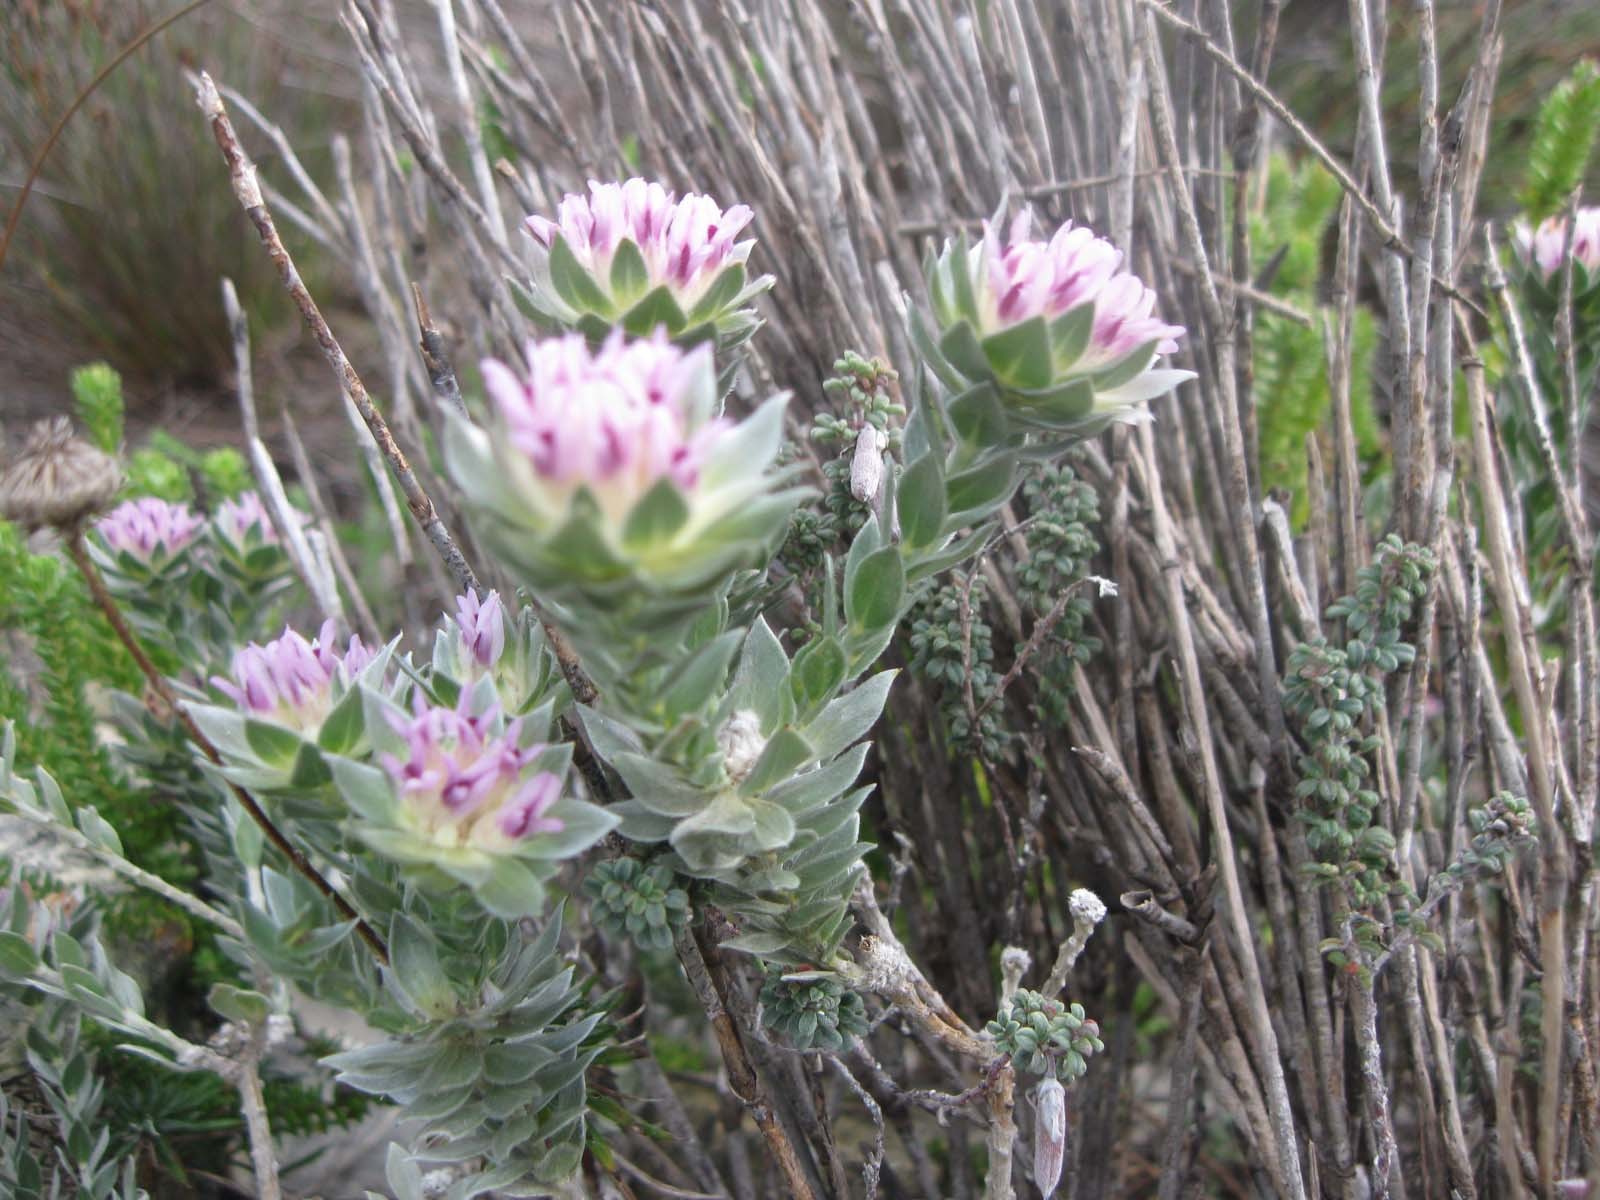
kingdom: Plantae
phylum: Tracheophyta
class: Magnoliopsida
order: Fabales
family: Fabaceae
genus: Amphithalea
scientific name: Amphithalea ericifolia
